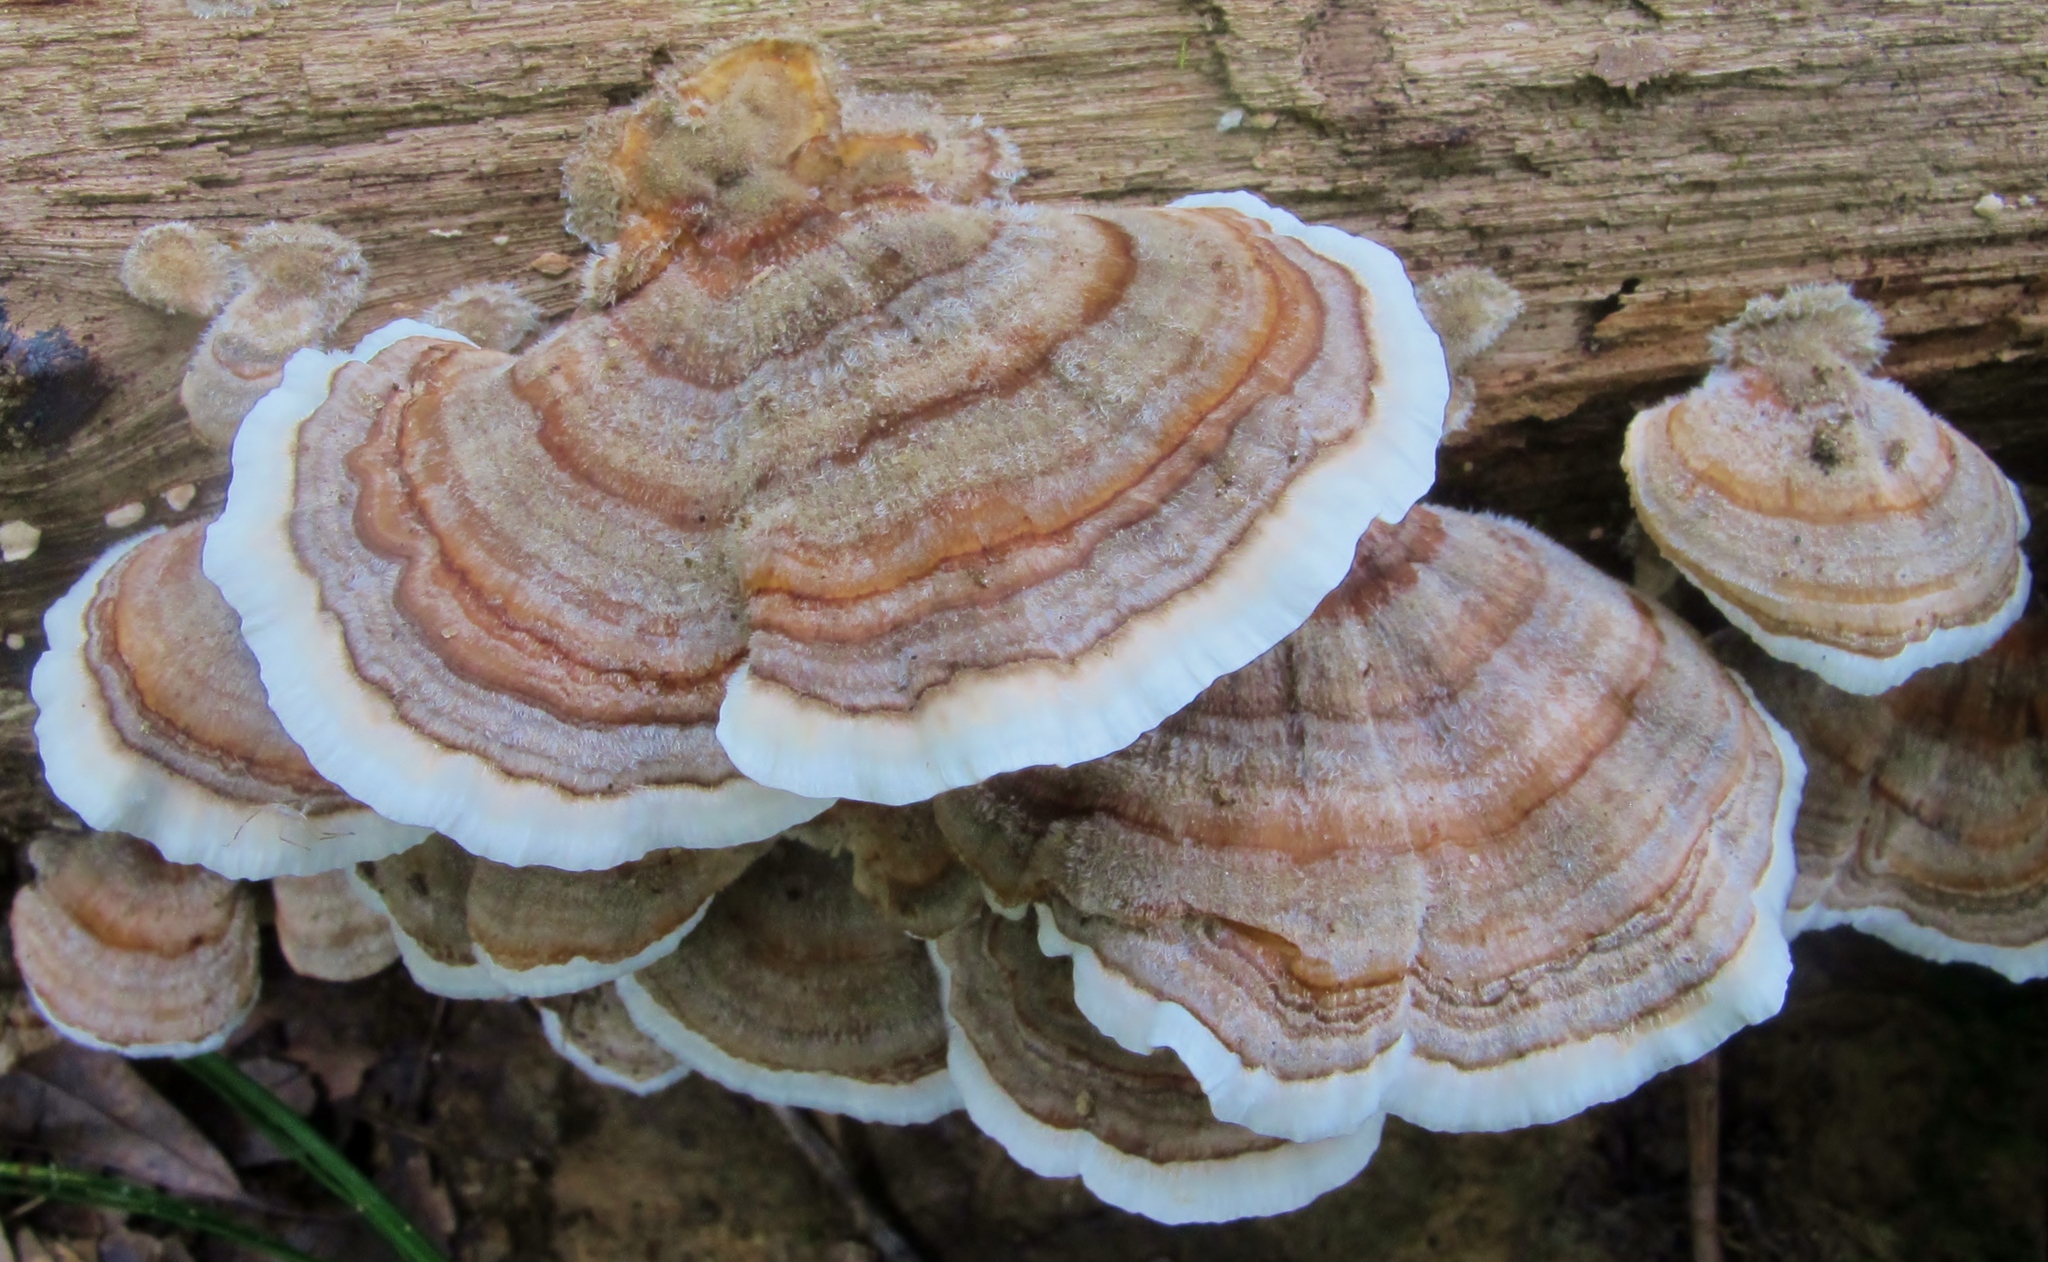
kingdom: Fungi
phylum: Basidiomycota
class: Agaricomycetes
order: Polyporales
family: Polyporaceae
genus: Trametes
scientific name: Trametes versicolor
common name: Turkeytail
